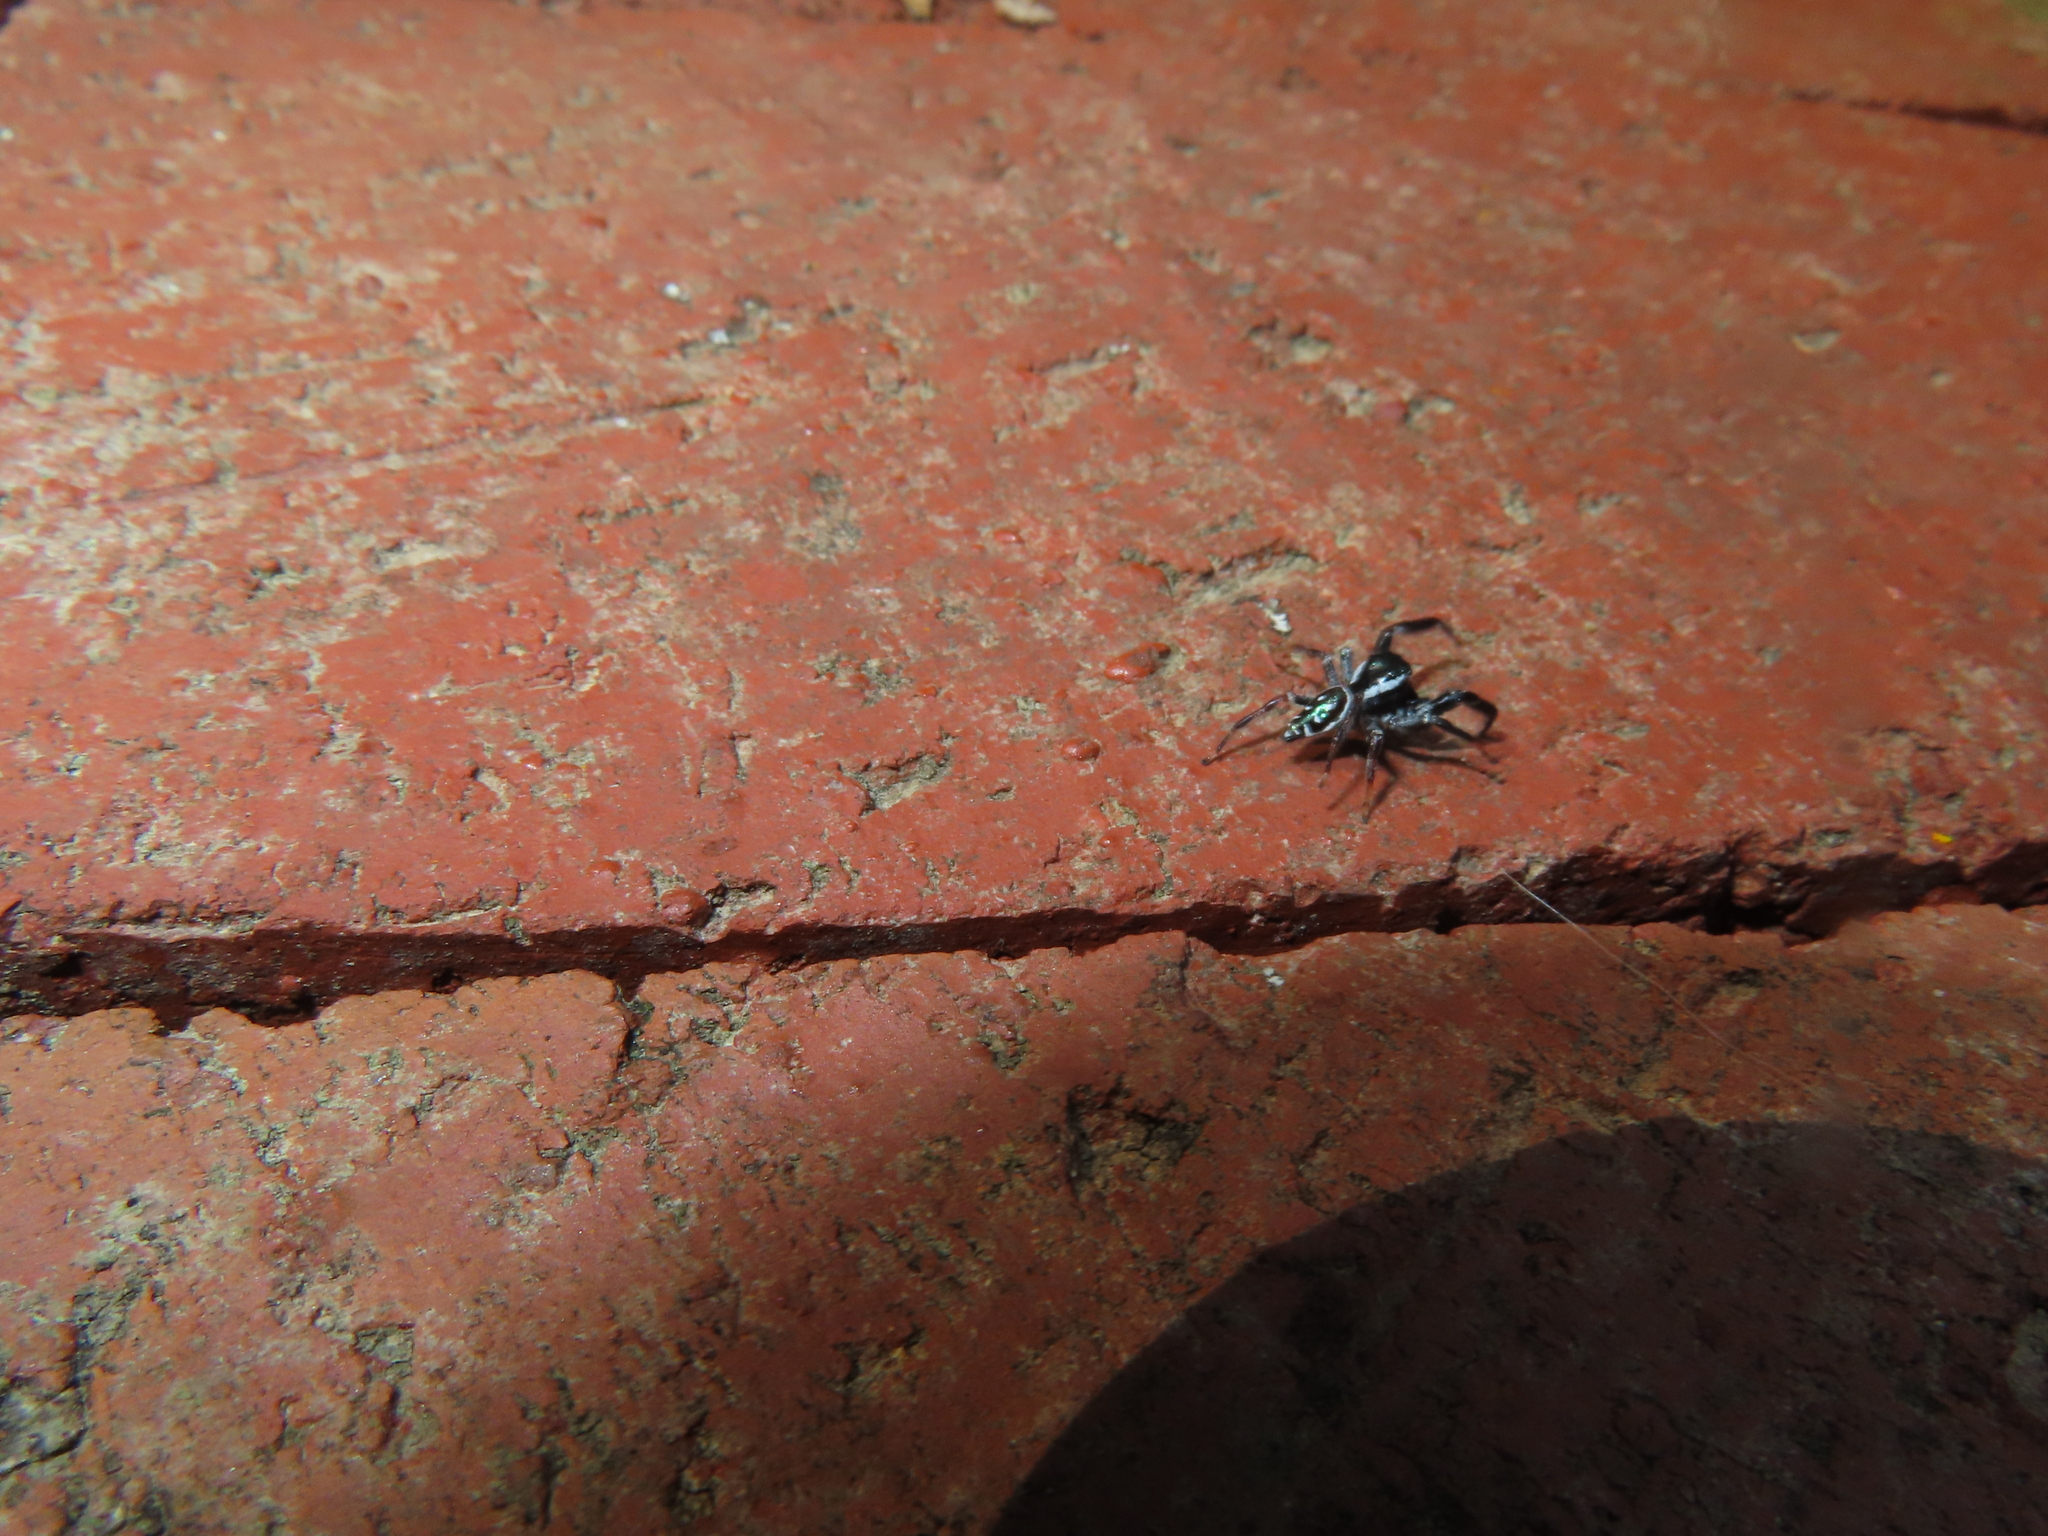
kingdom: Animalia
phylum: Arthropoda
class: Arachnida
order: Araneae
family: Salticidae
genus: Paraphidippus
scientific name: Paraphidippus aurantius
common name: Jumping spiders
